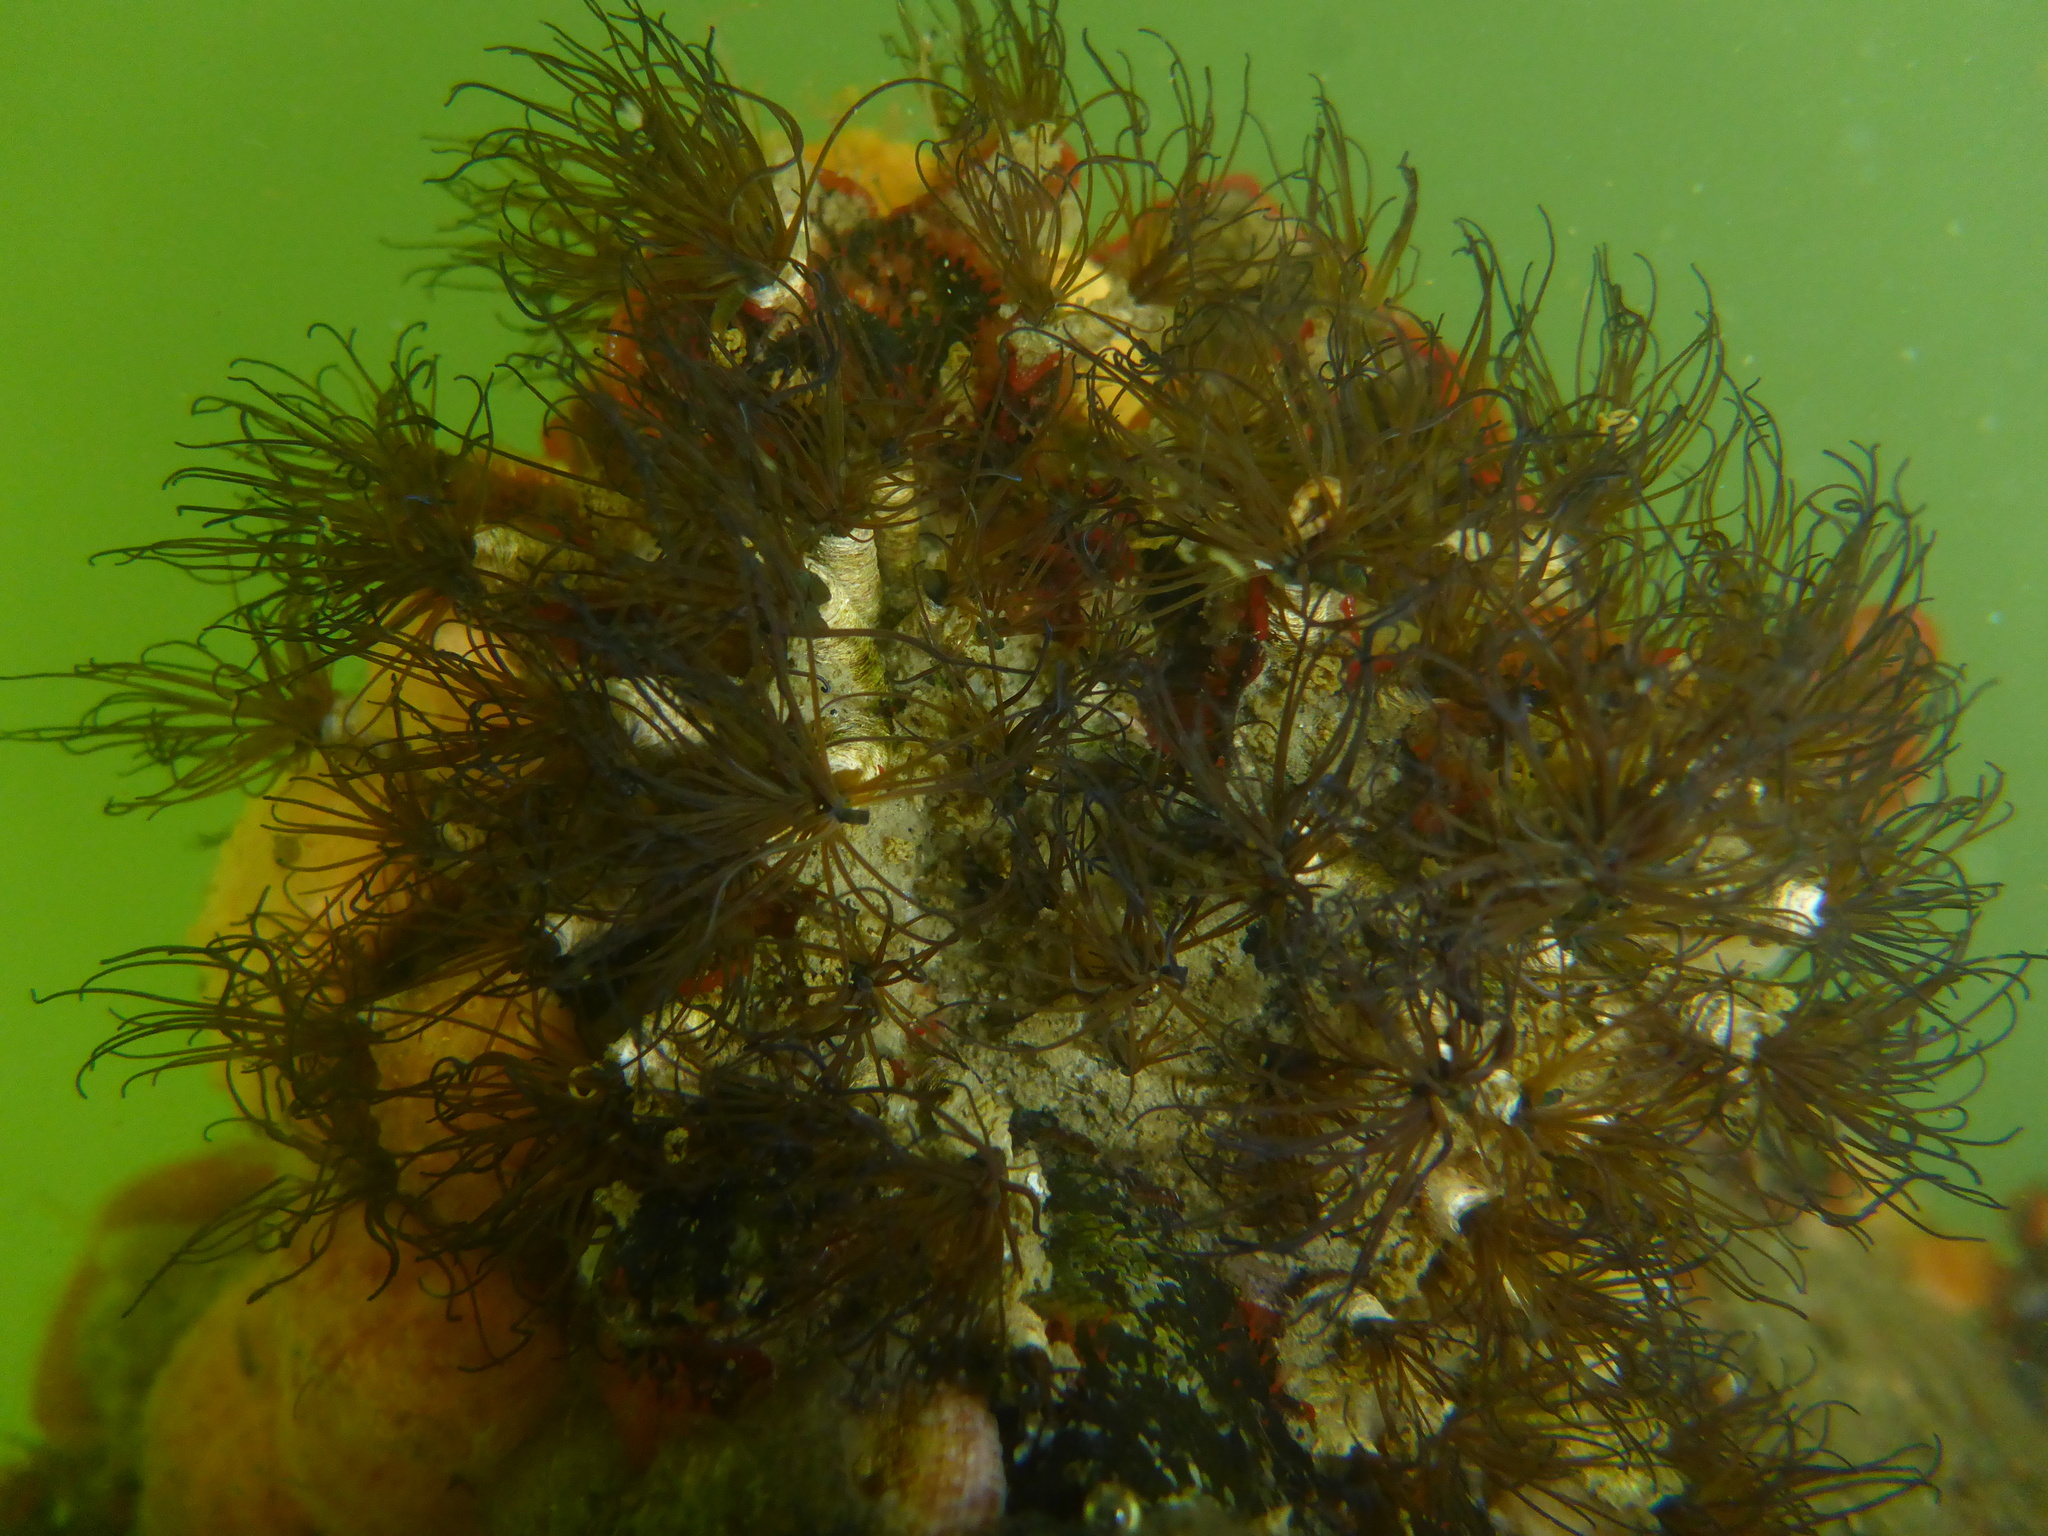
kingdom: Animalia
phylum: Annelida
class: Polychaeta
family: Cirratulidae
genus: Dodecaceria
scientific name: Dodecaceria pacifica
